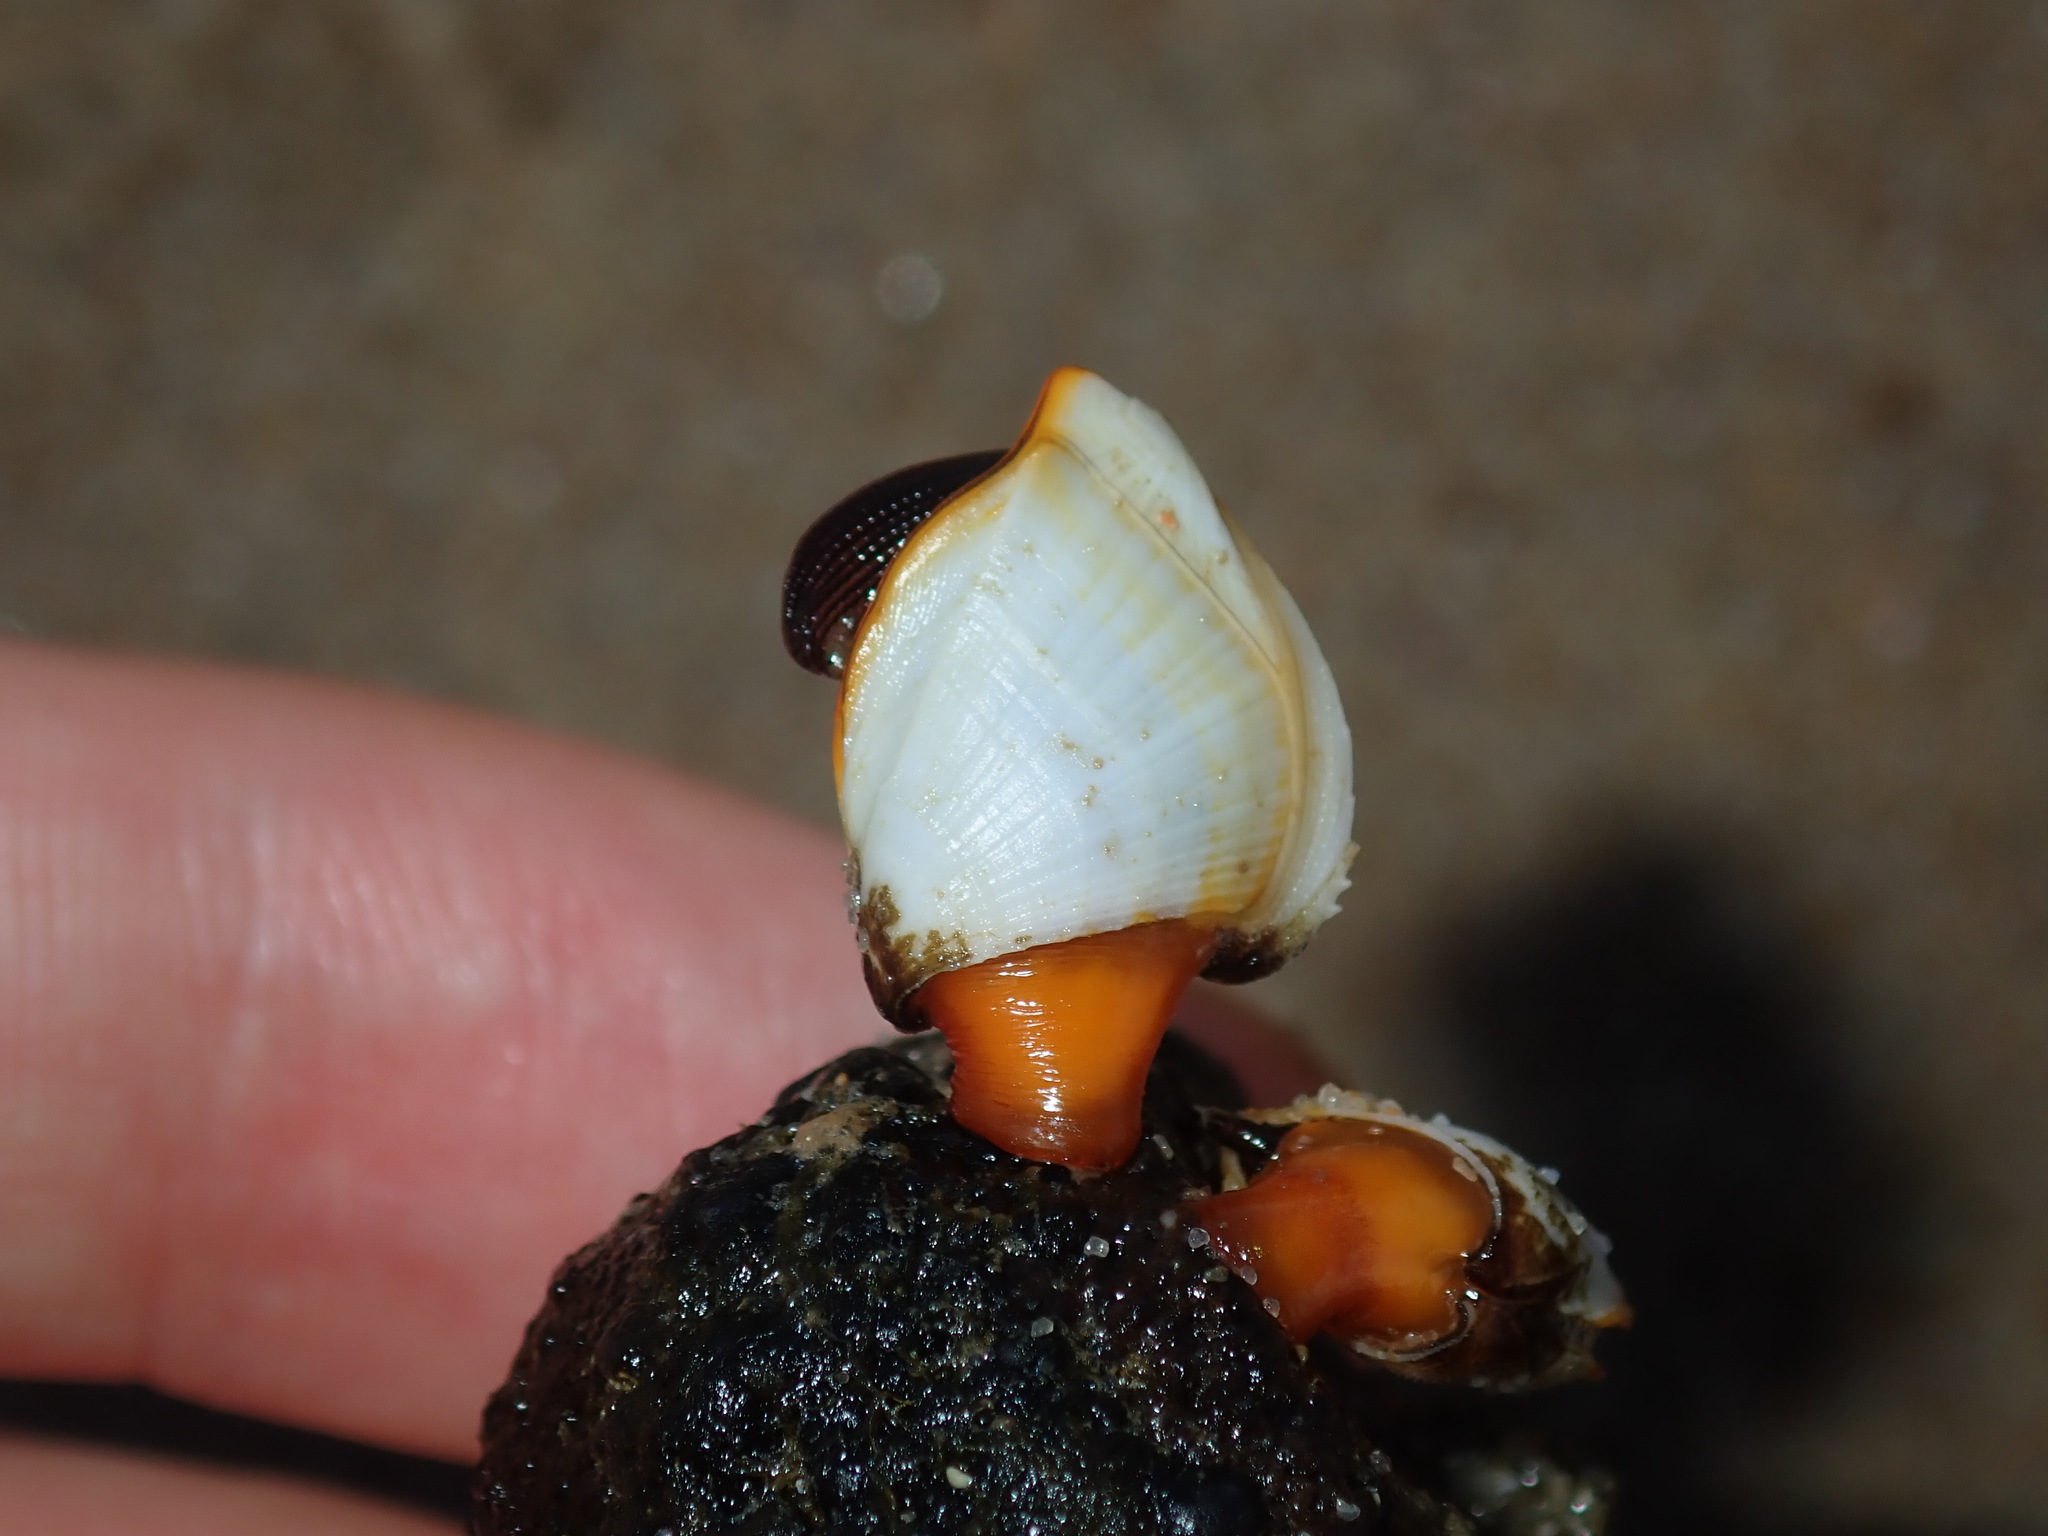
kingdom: Animalia
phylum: Arthropoda
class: Maxillopoda
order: Pedunculata
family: Lepadidae
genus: Lepas
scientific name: Lepas anserifera
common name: Goose barnacle
